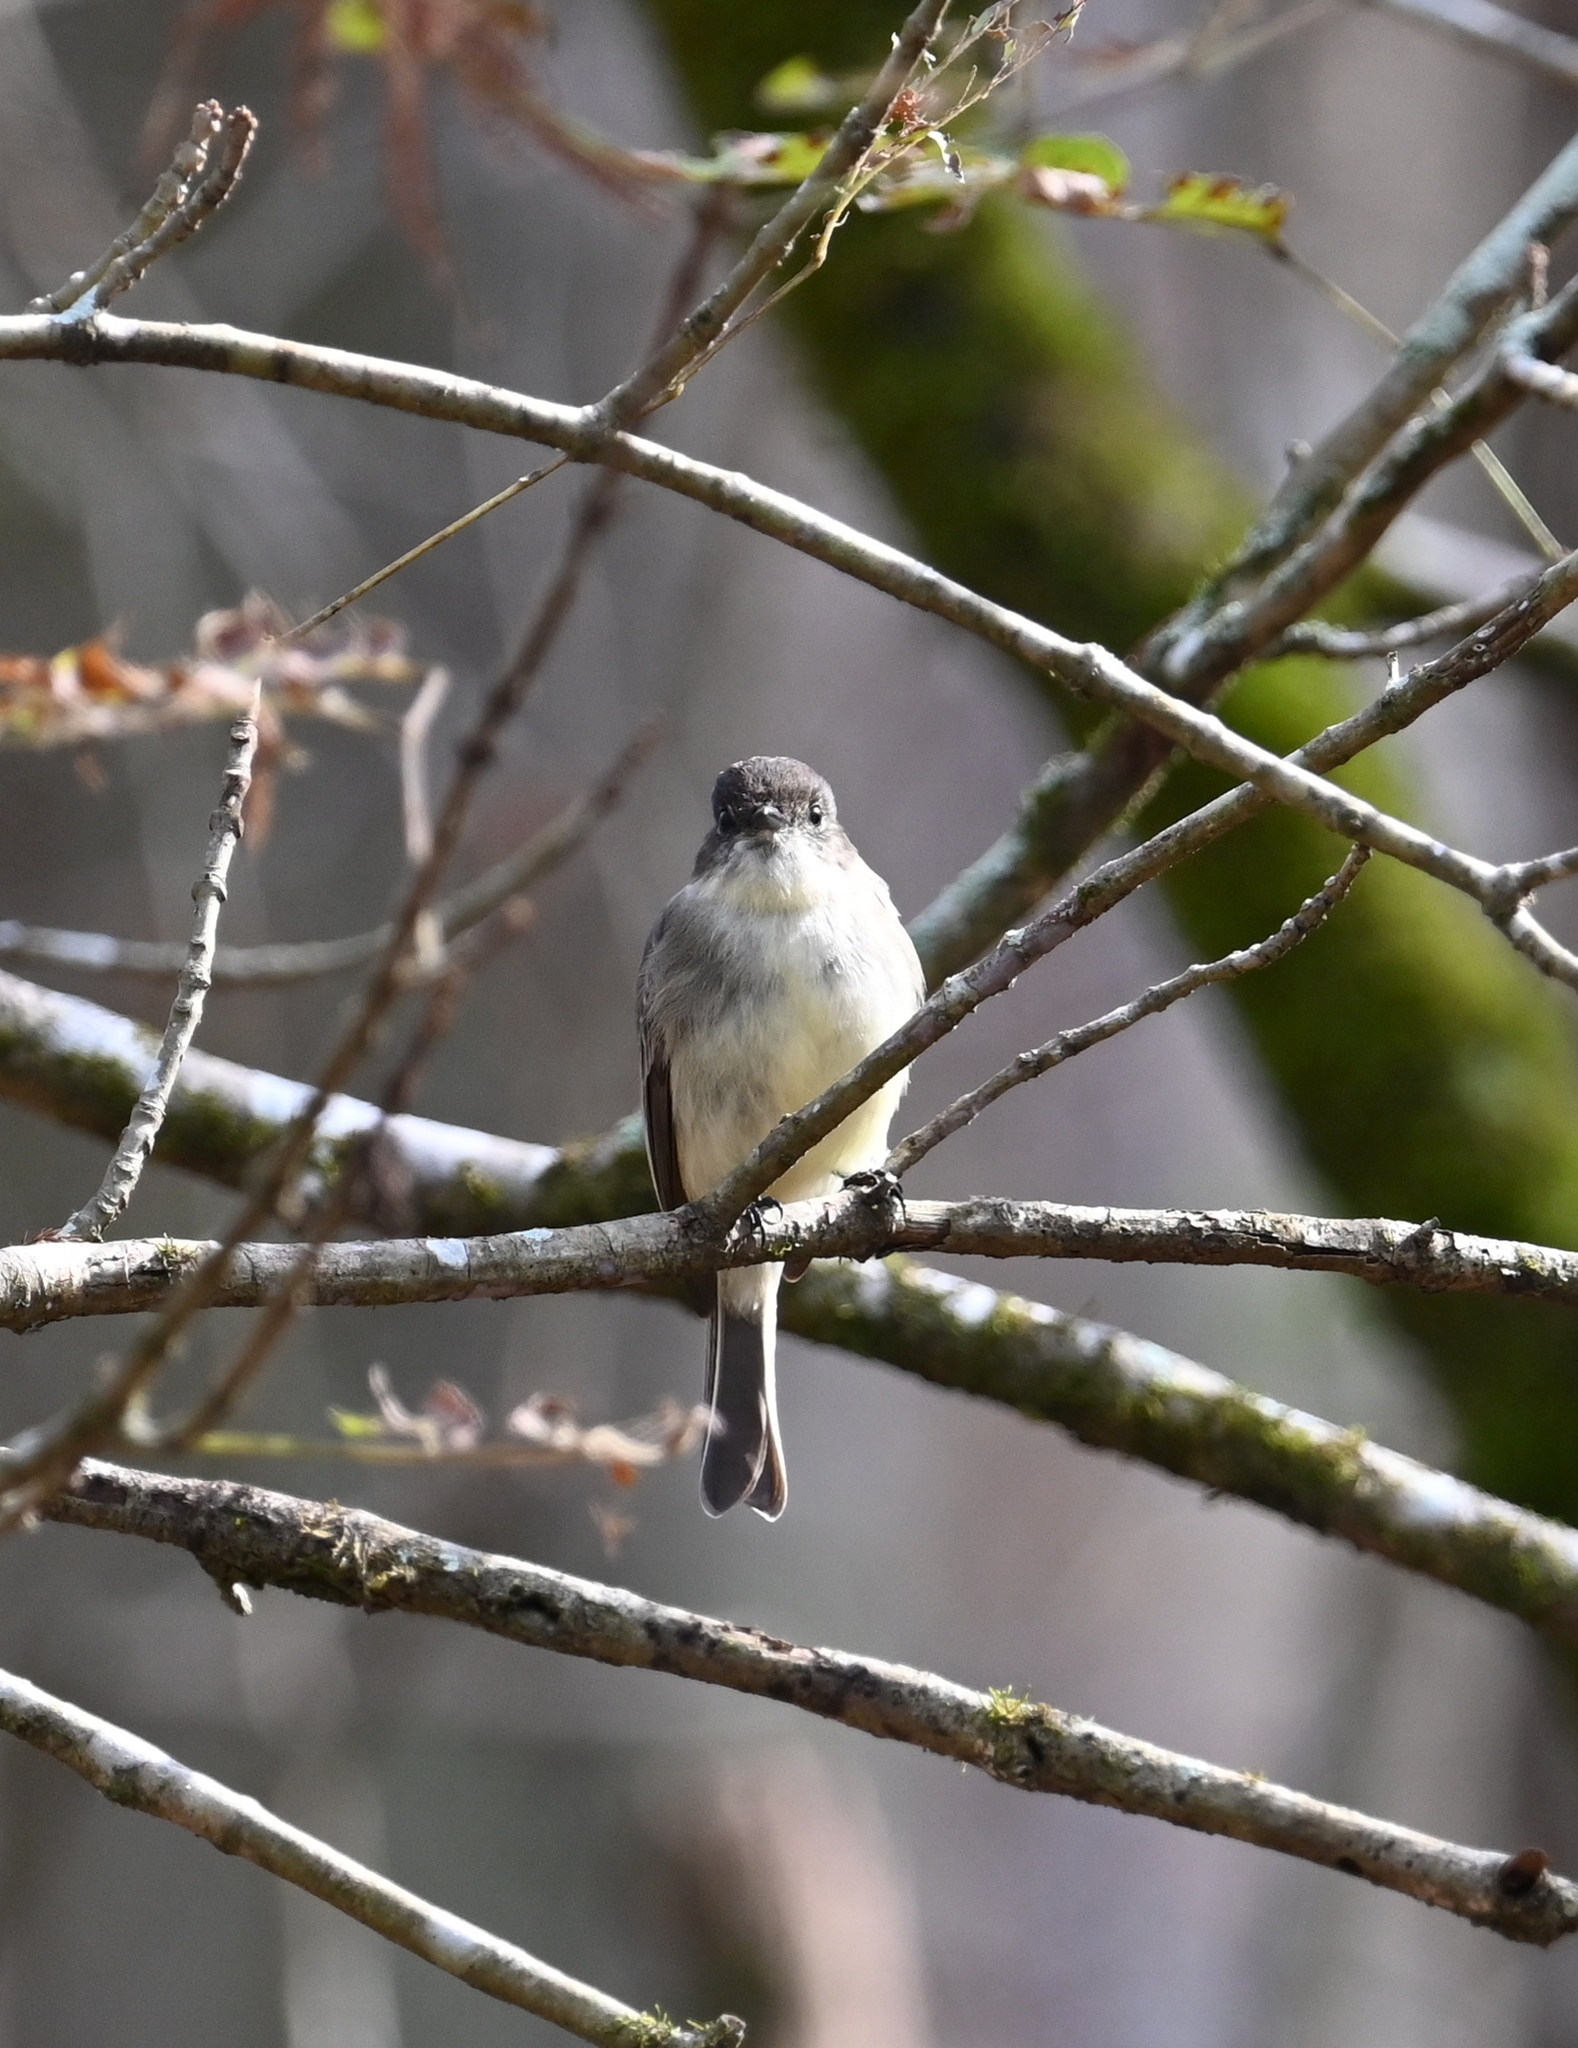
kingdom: Animalia
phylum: Chordata
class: Aves
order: Passeriformes
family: Tyrannidae
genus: Sayornis
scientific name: Sayornis phoebe
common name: Eastern phoebe
